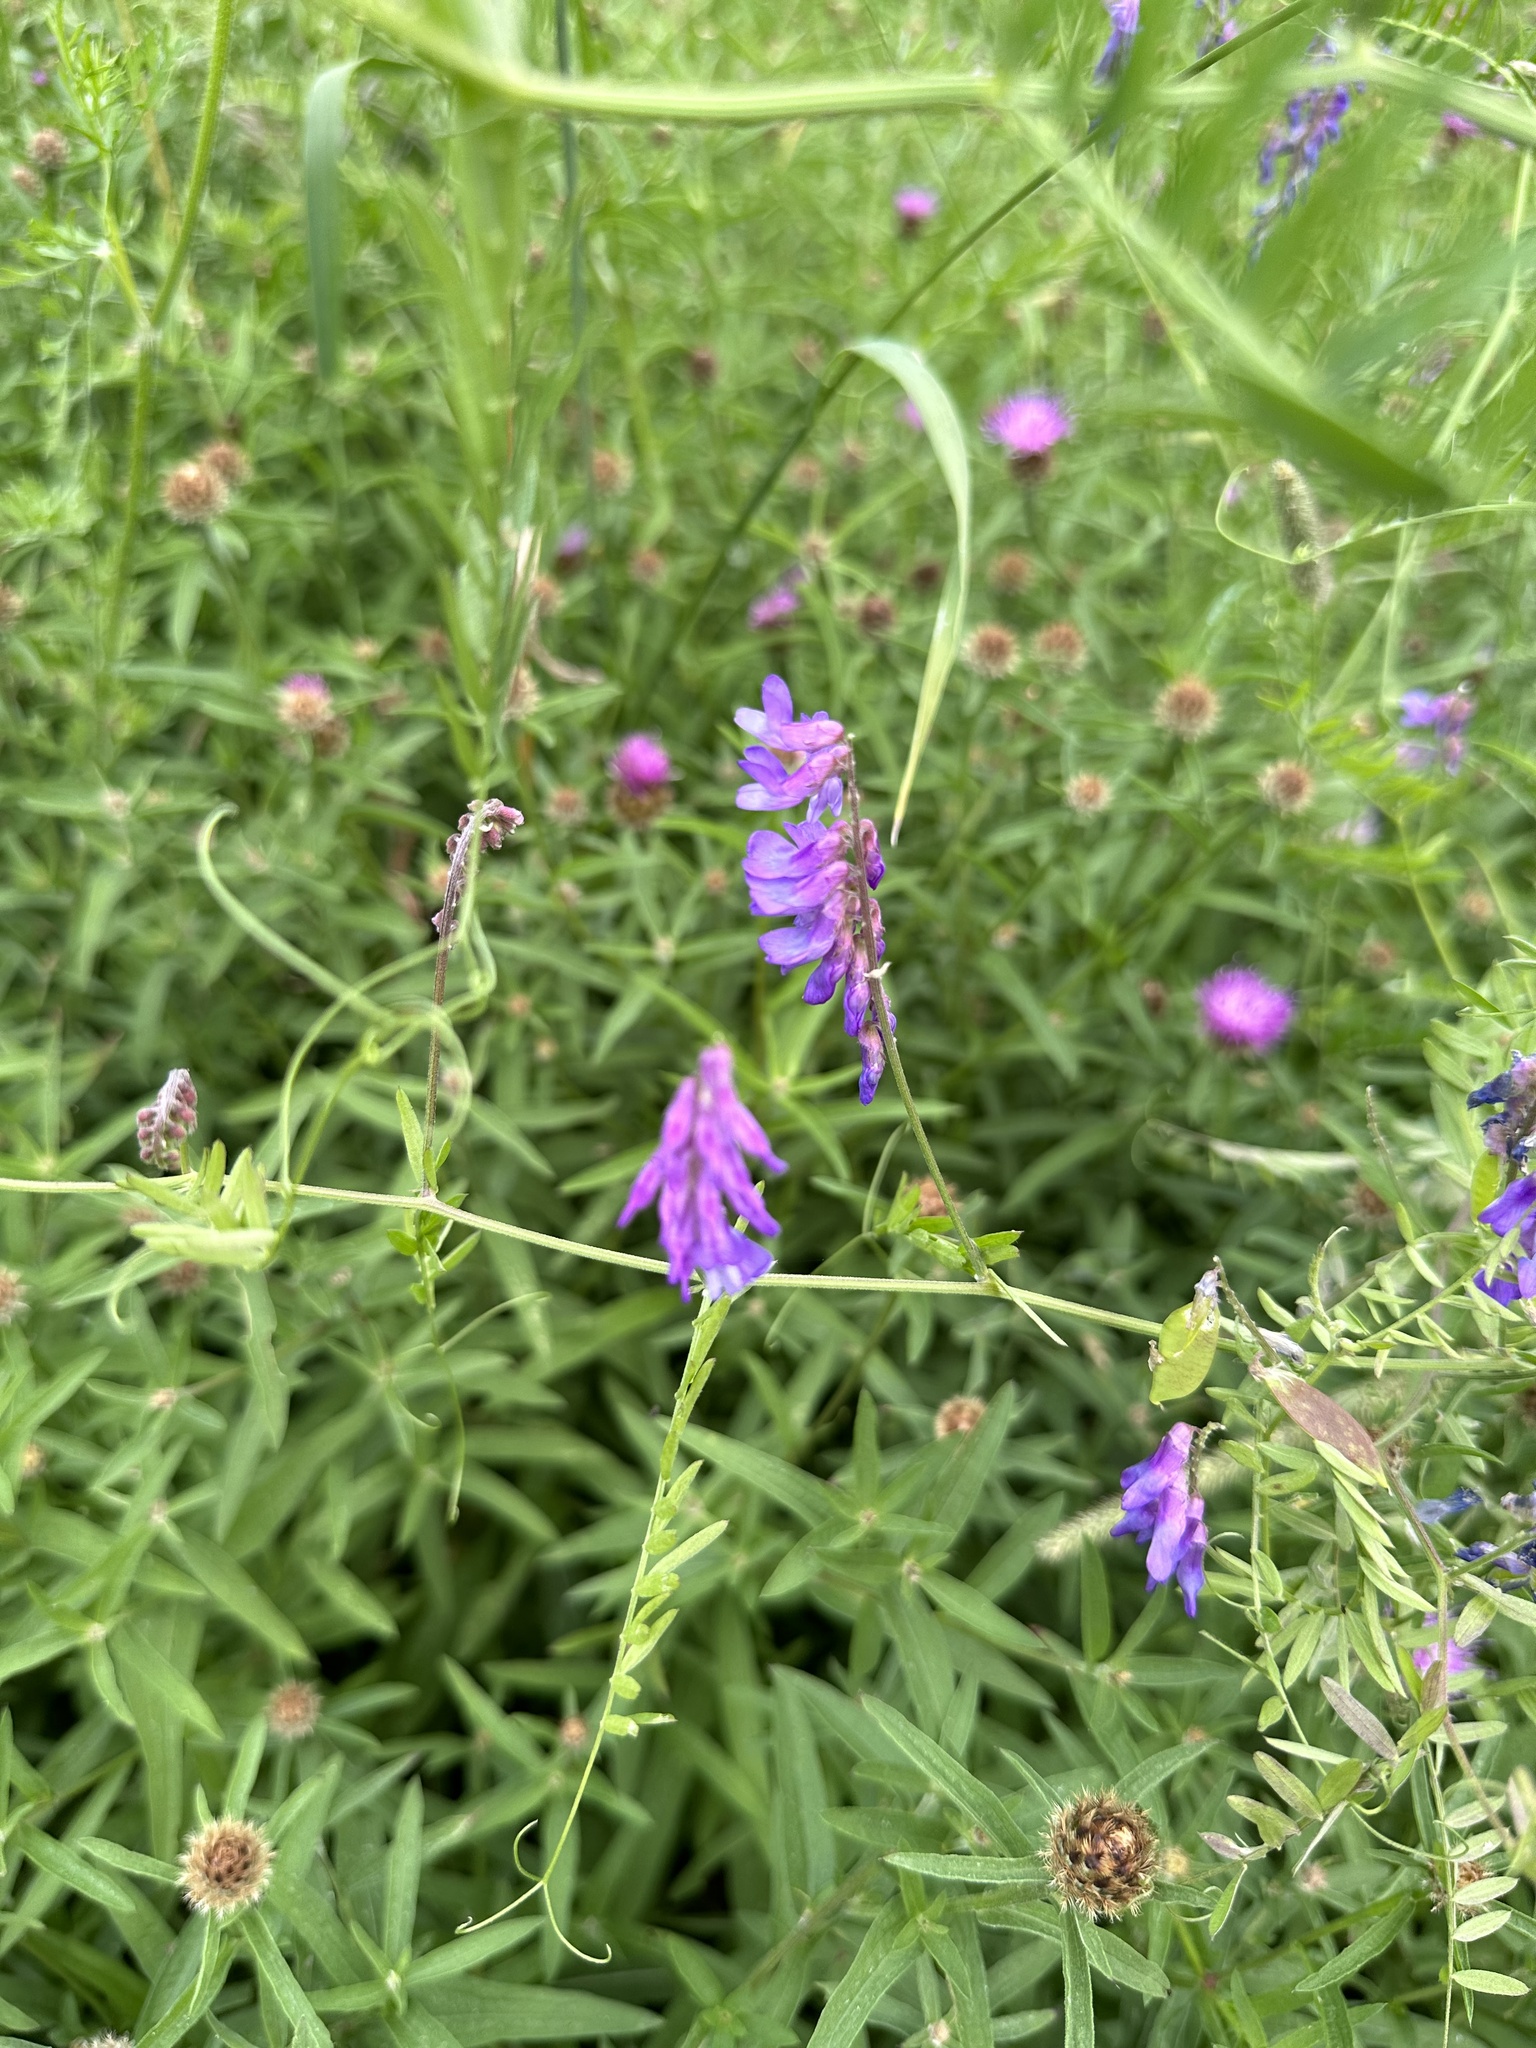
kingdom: Plantae
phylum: Tracheophyta
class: Magnoliopsida
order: Fabales
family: Fabaceae
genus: Vicia
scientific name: Vicia cracca
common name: Bird vetch
